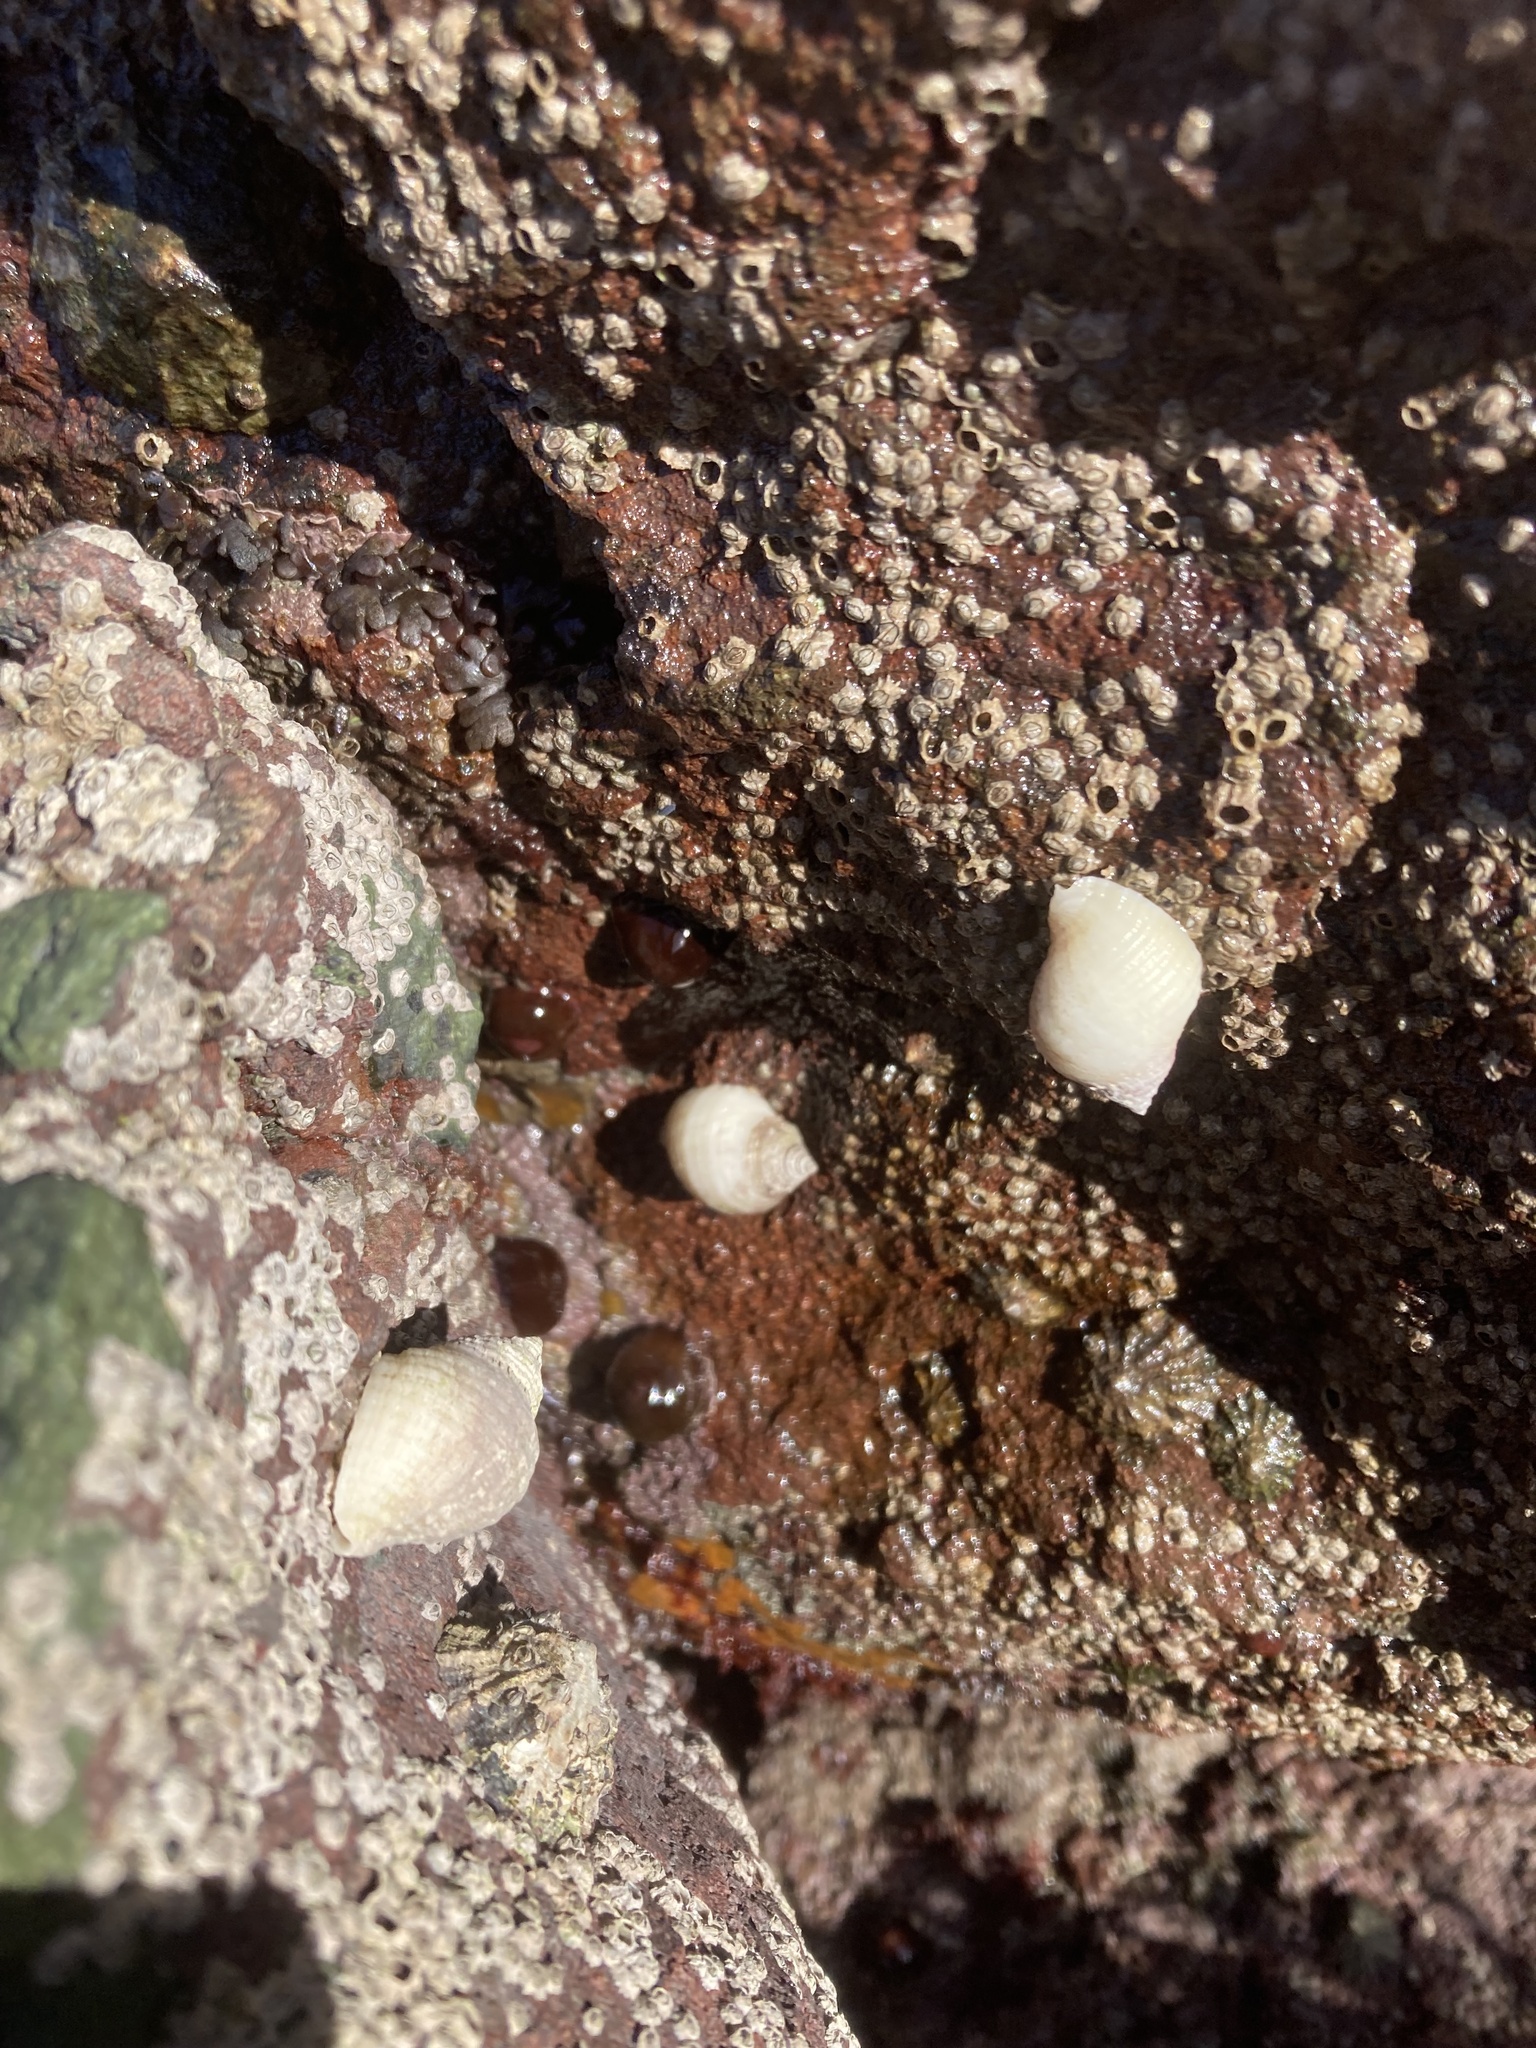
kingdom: Animalia
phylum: Mollusca
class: Gastropoda
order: Neogastropoda
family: Muricidae
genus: Nucella
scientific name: Nucella lapillus
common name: Dog whelk
